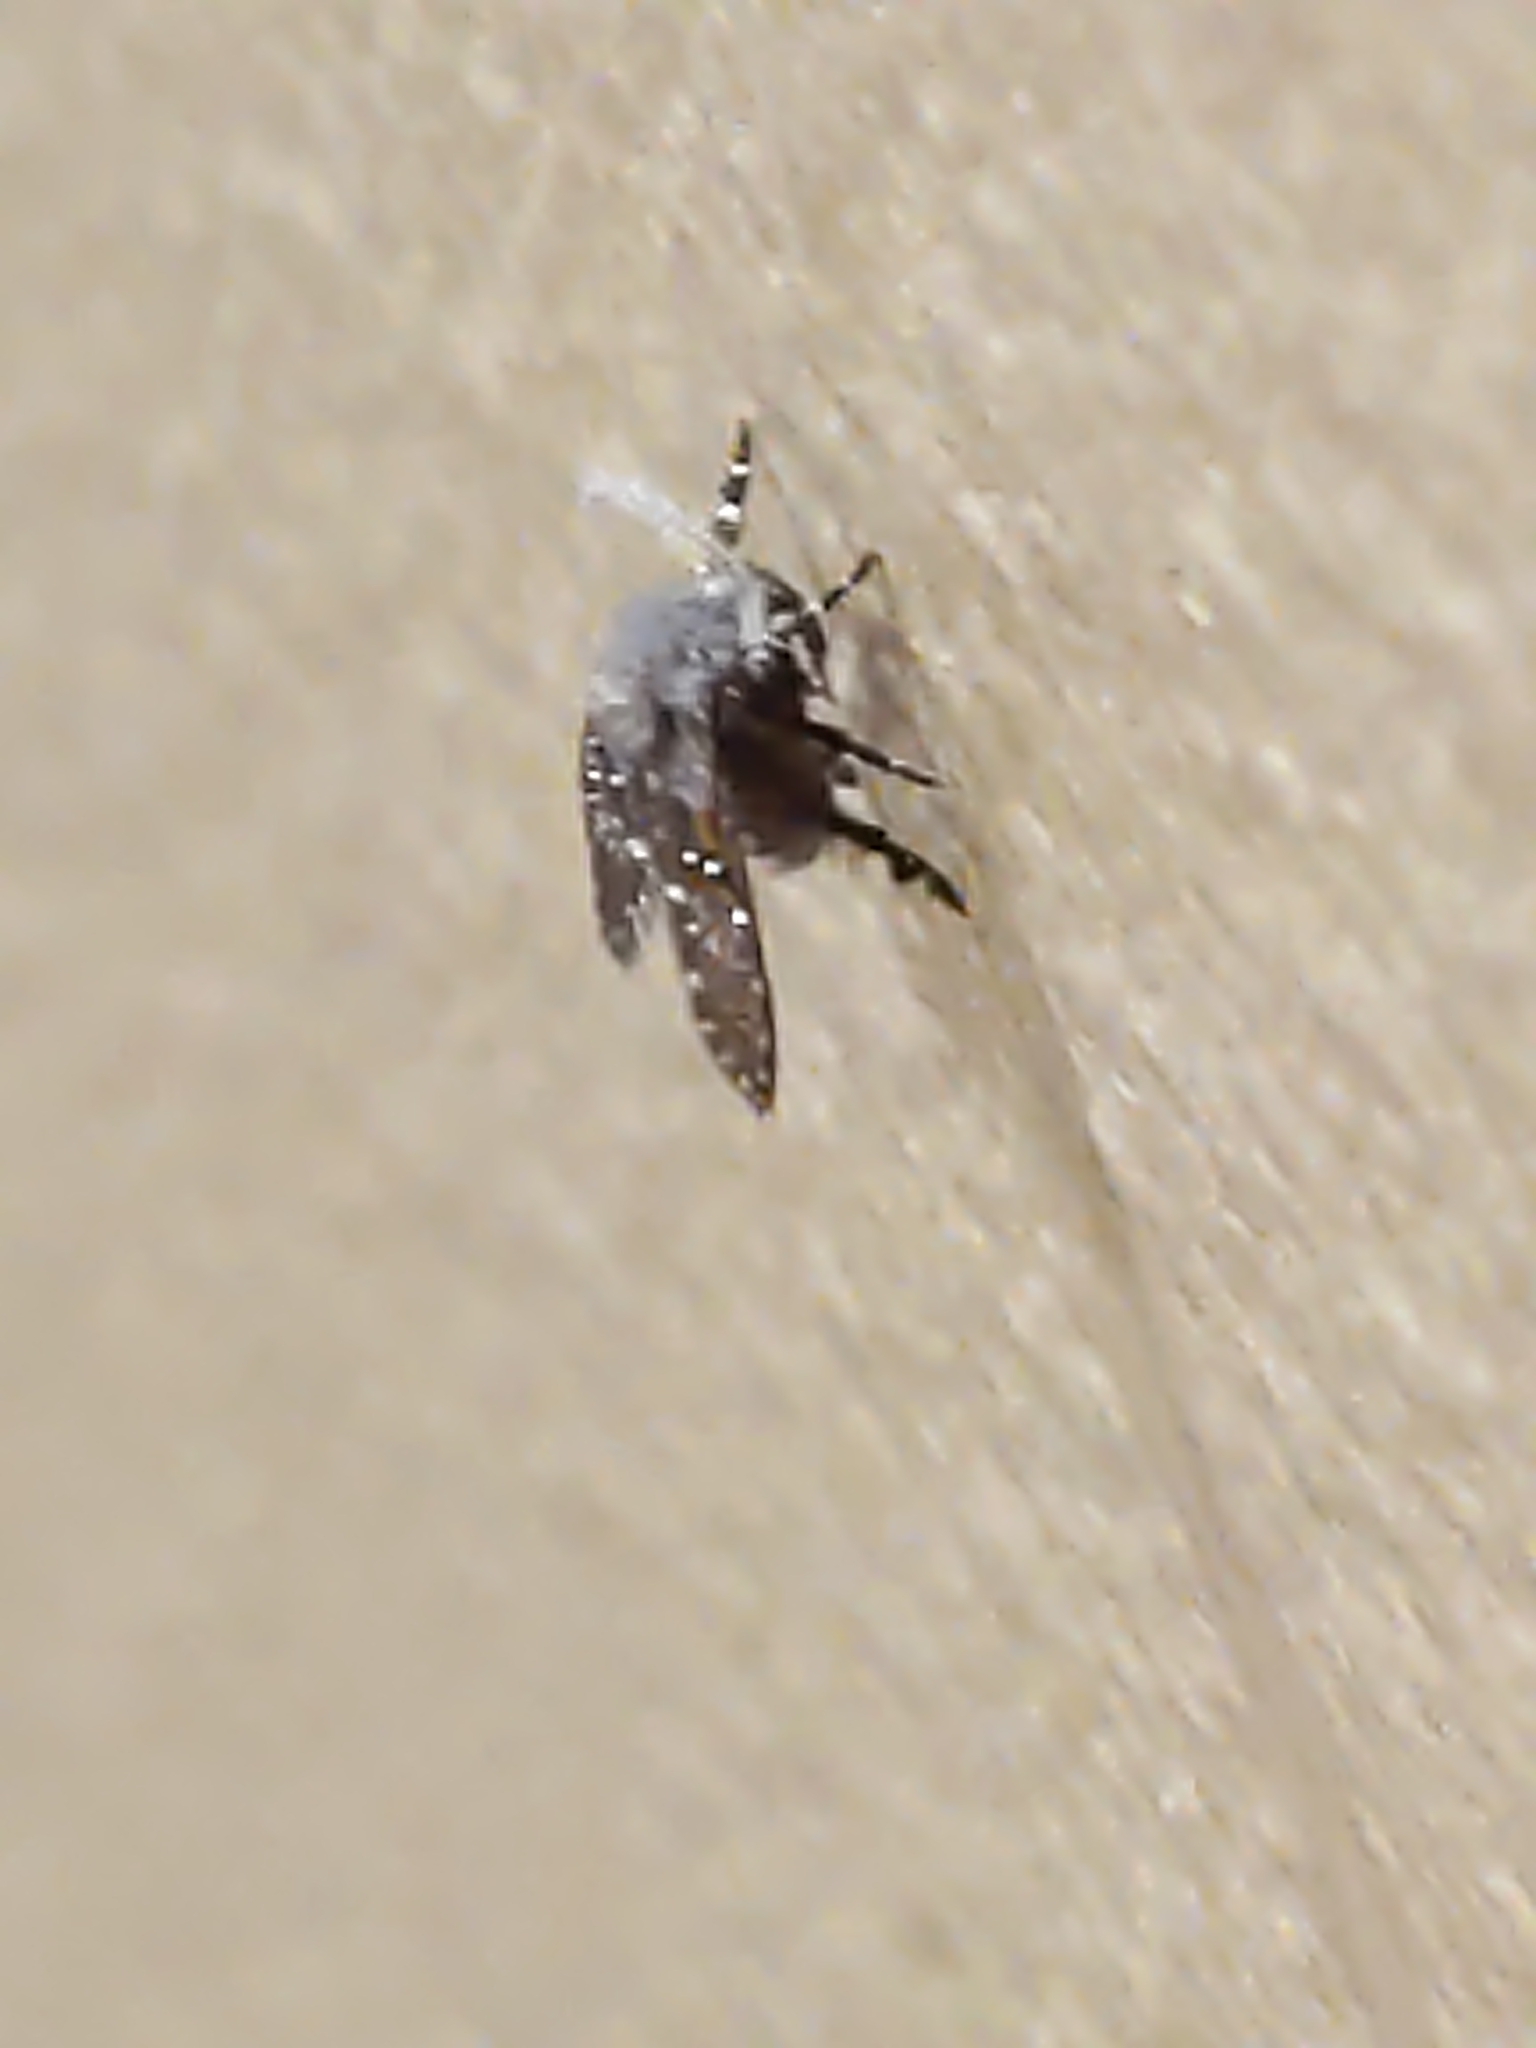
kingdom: Animalia
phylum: Arthropoda
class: Insecta
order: Diptera
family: Psychodidae
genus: Clogmia
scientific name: Clogmia albipunctatus
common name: White-spotted moth fly
